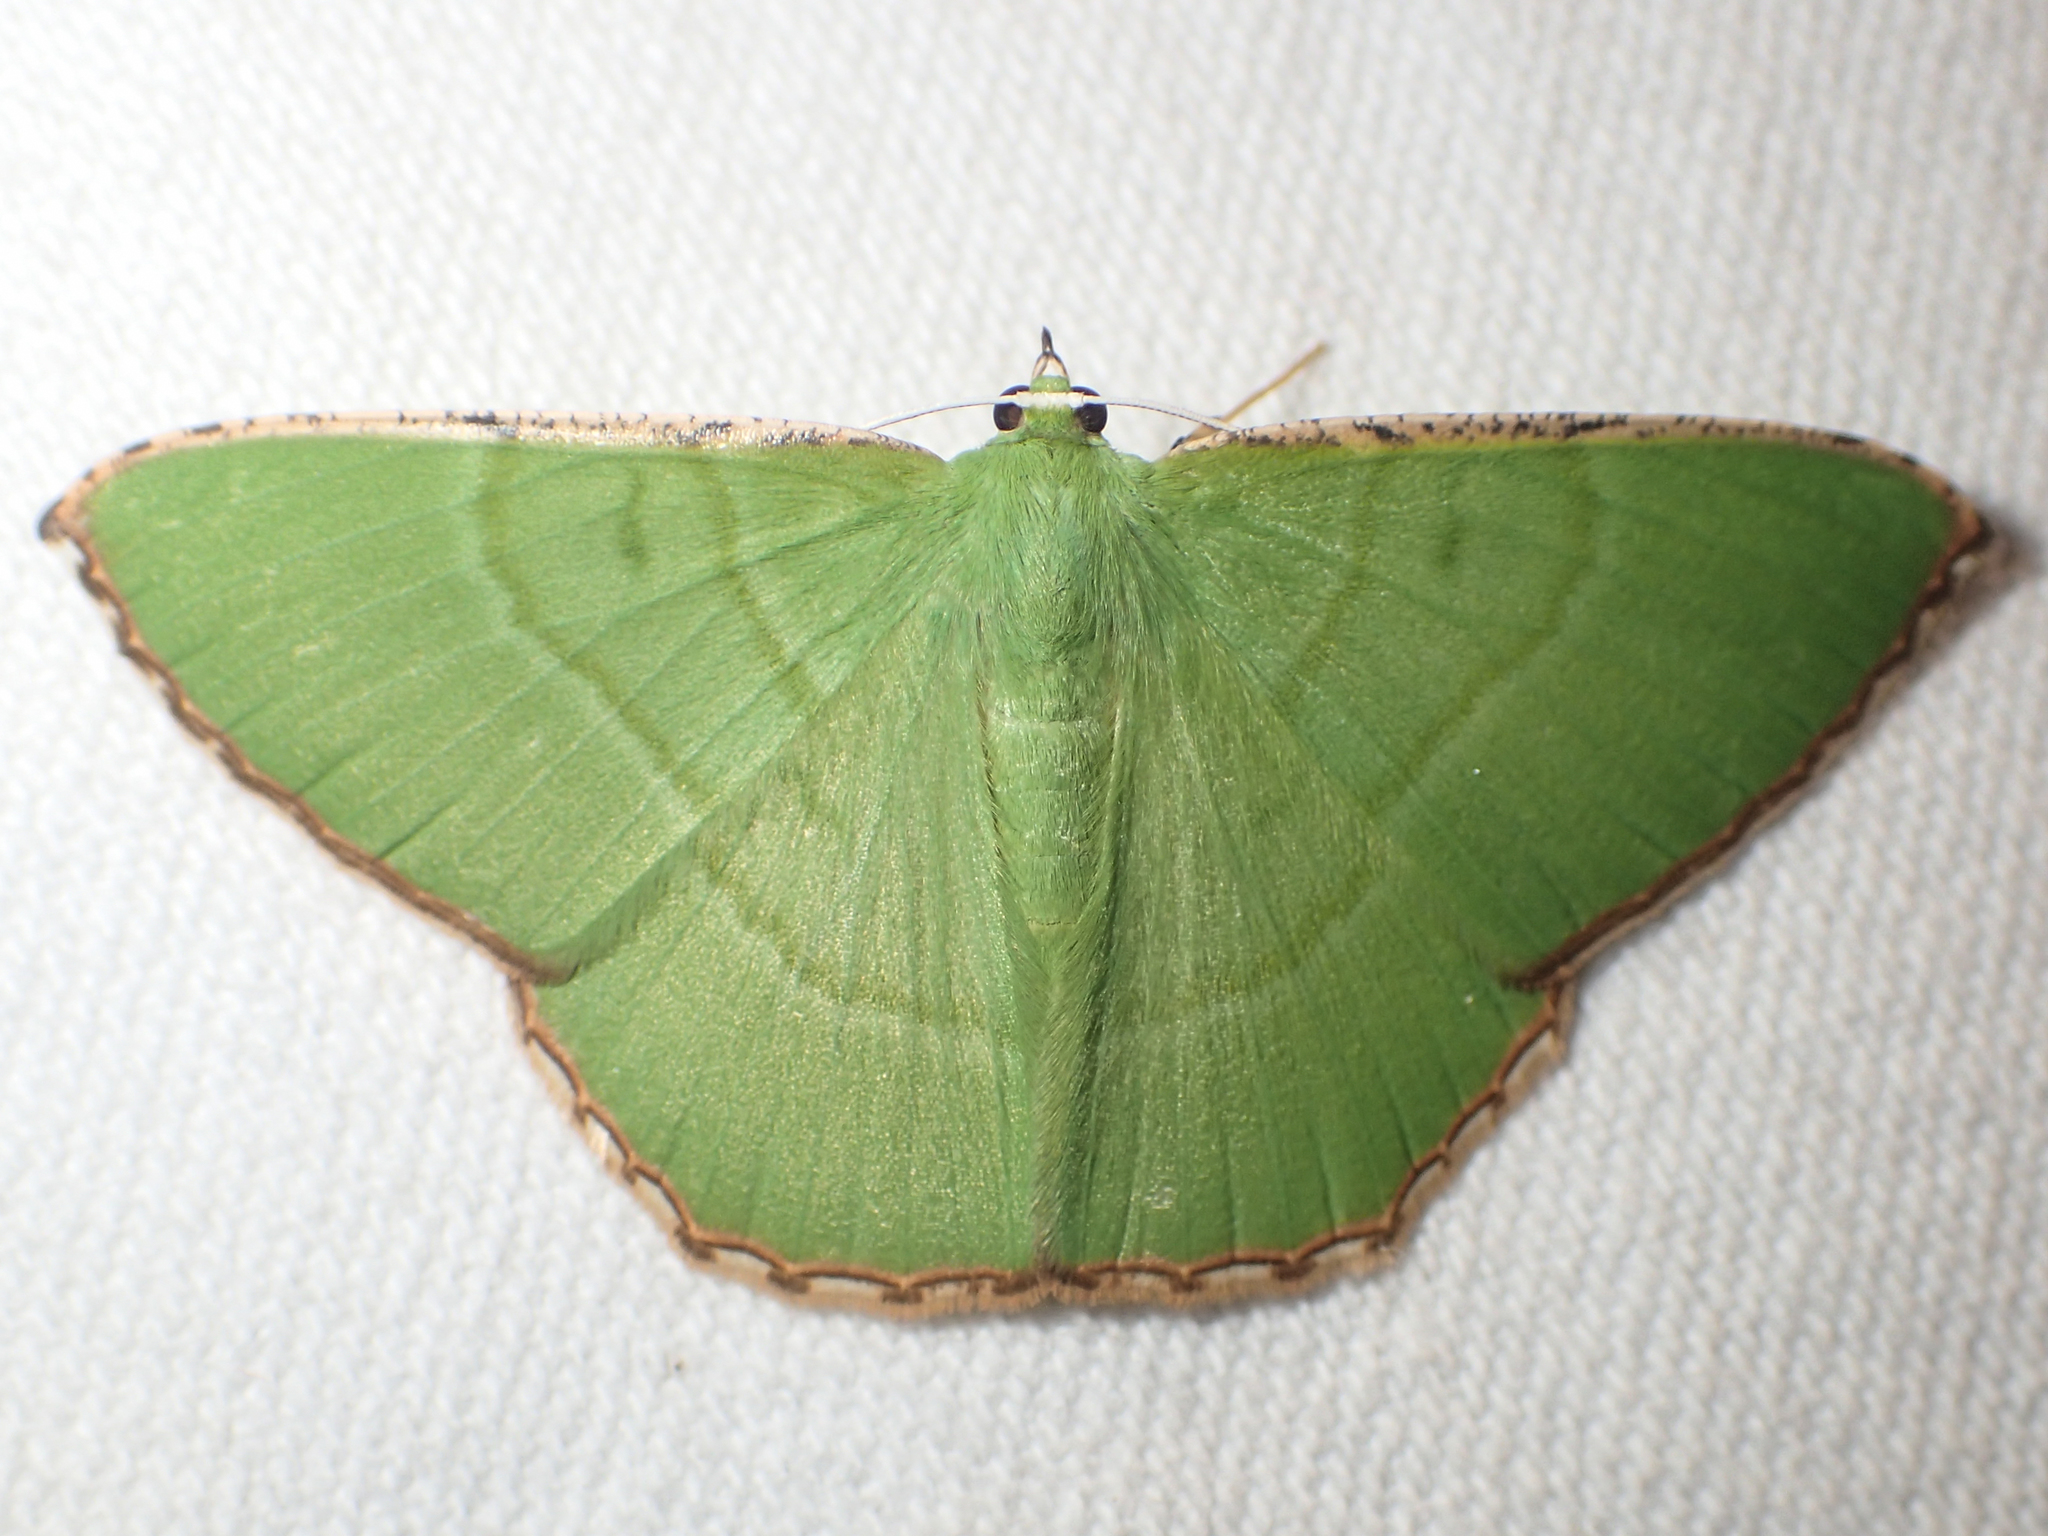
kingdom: Animalia
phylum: Arthropoda
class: Insecta
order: Lepidoptera
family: Geometridae
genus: Ornithospila
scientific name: Ornithospila succincta
